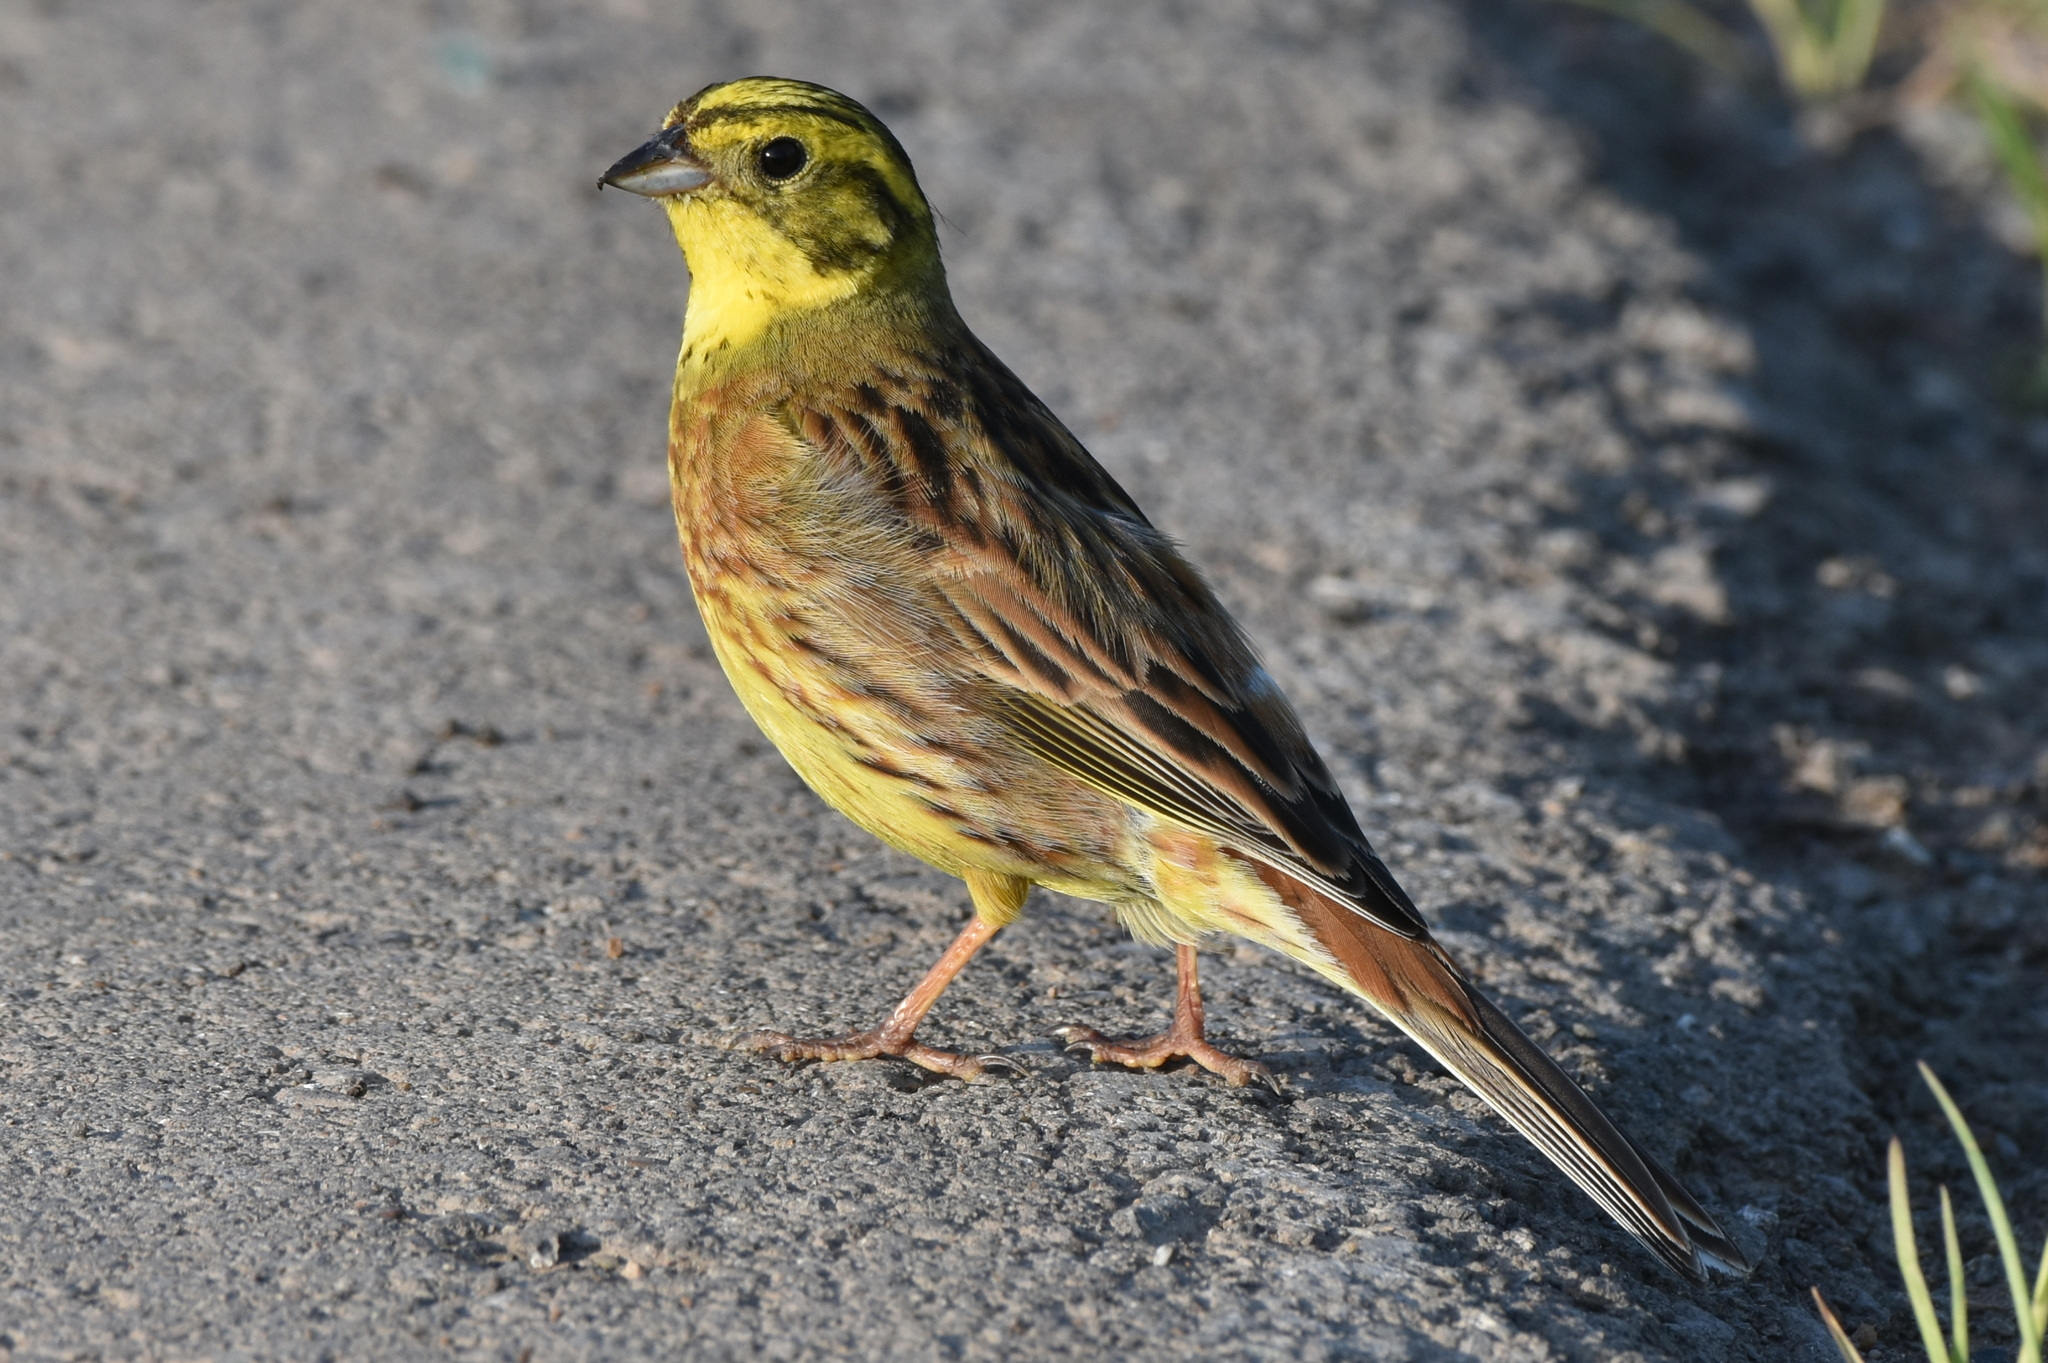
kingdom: Animalia
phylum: Chordata
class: Aves
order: Passeriformes
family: Emberizidae
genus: Emberiza
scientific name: Emberiza citrinella
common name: Yellowhammer
